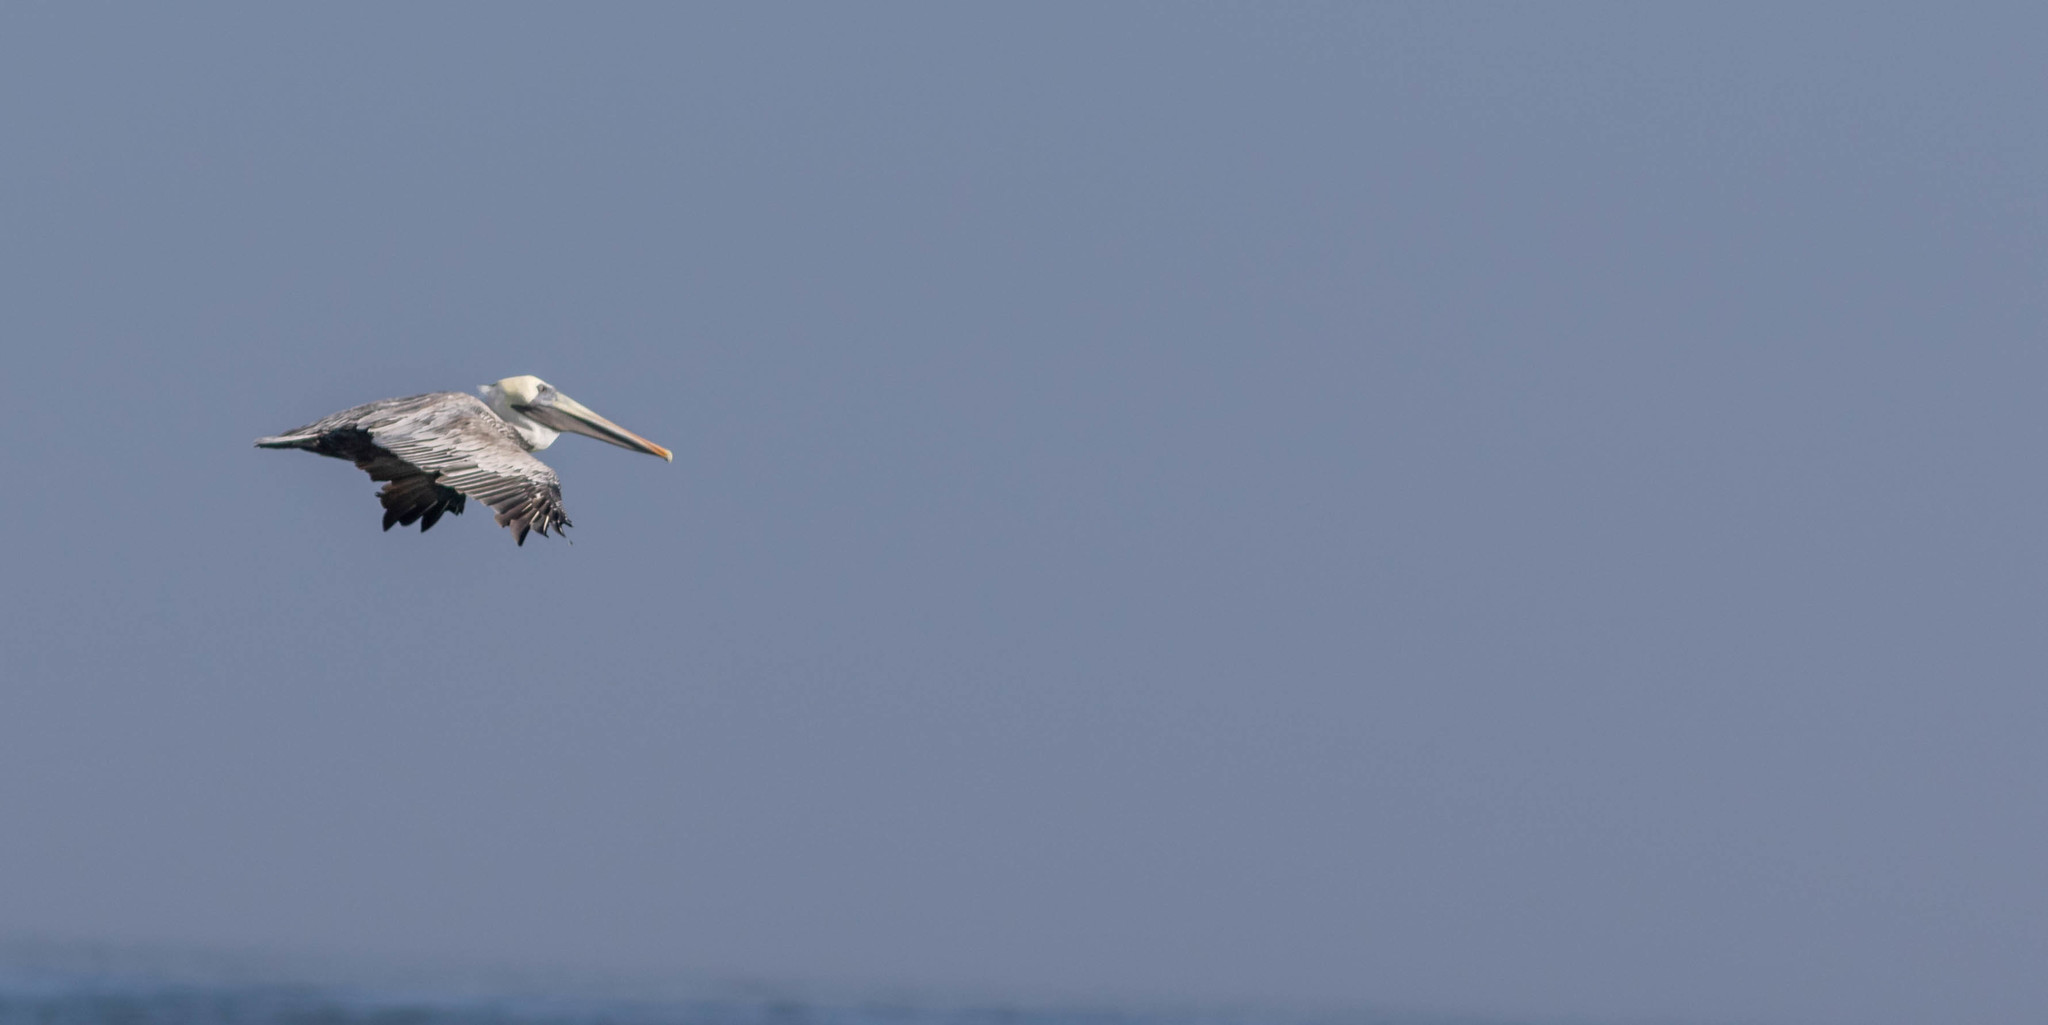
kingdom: Animalia
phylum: Chordata
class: Aves
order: Pelecaniformes
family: Pelecanidae
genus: Pelecanus
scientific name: Pelecanus occidentalis
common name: Brown pelican
